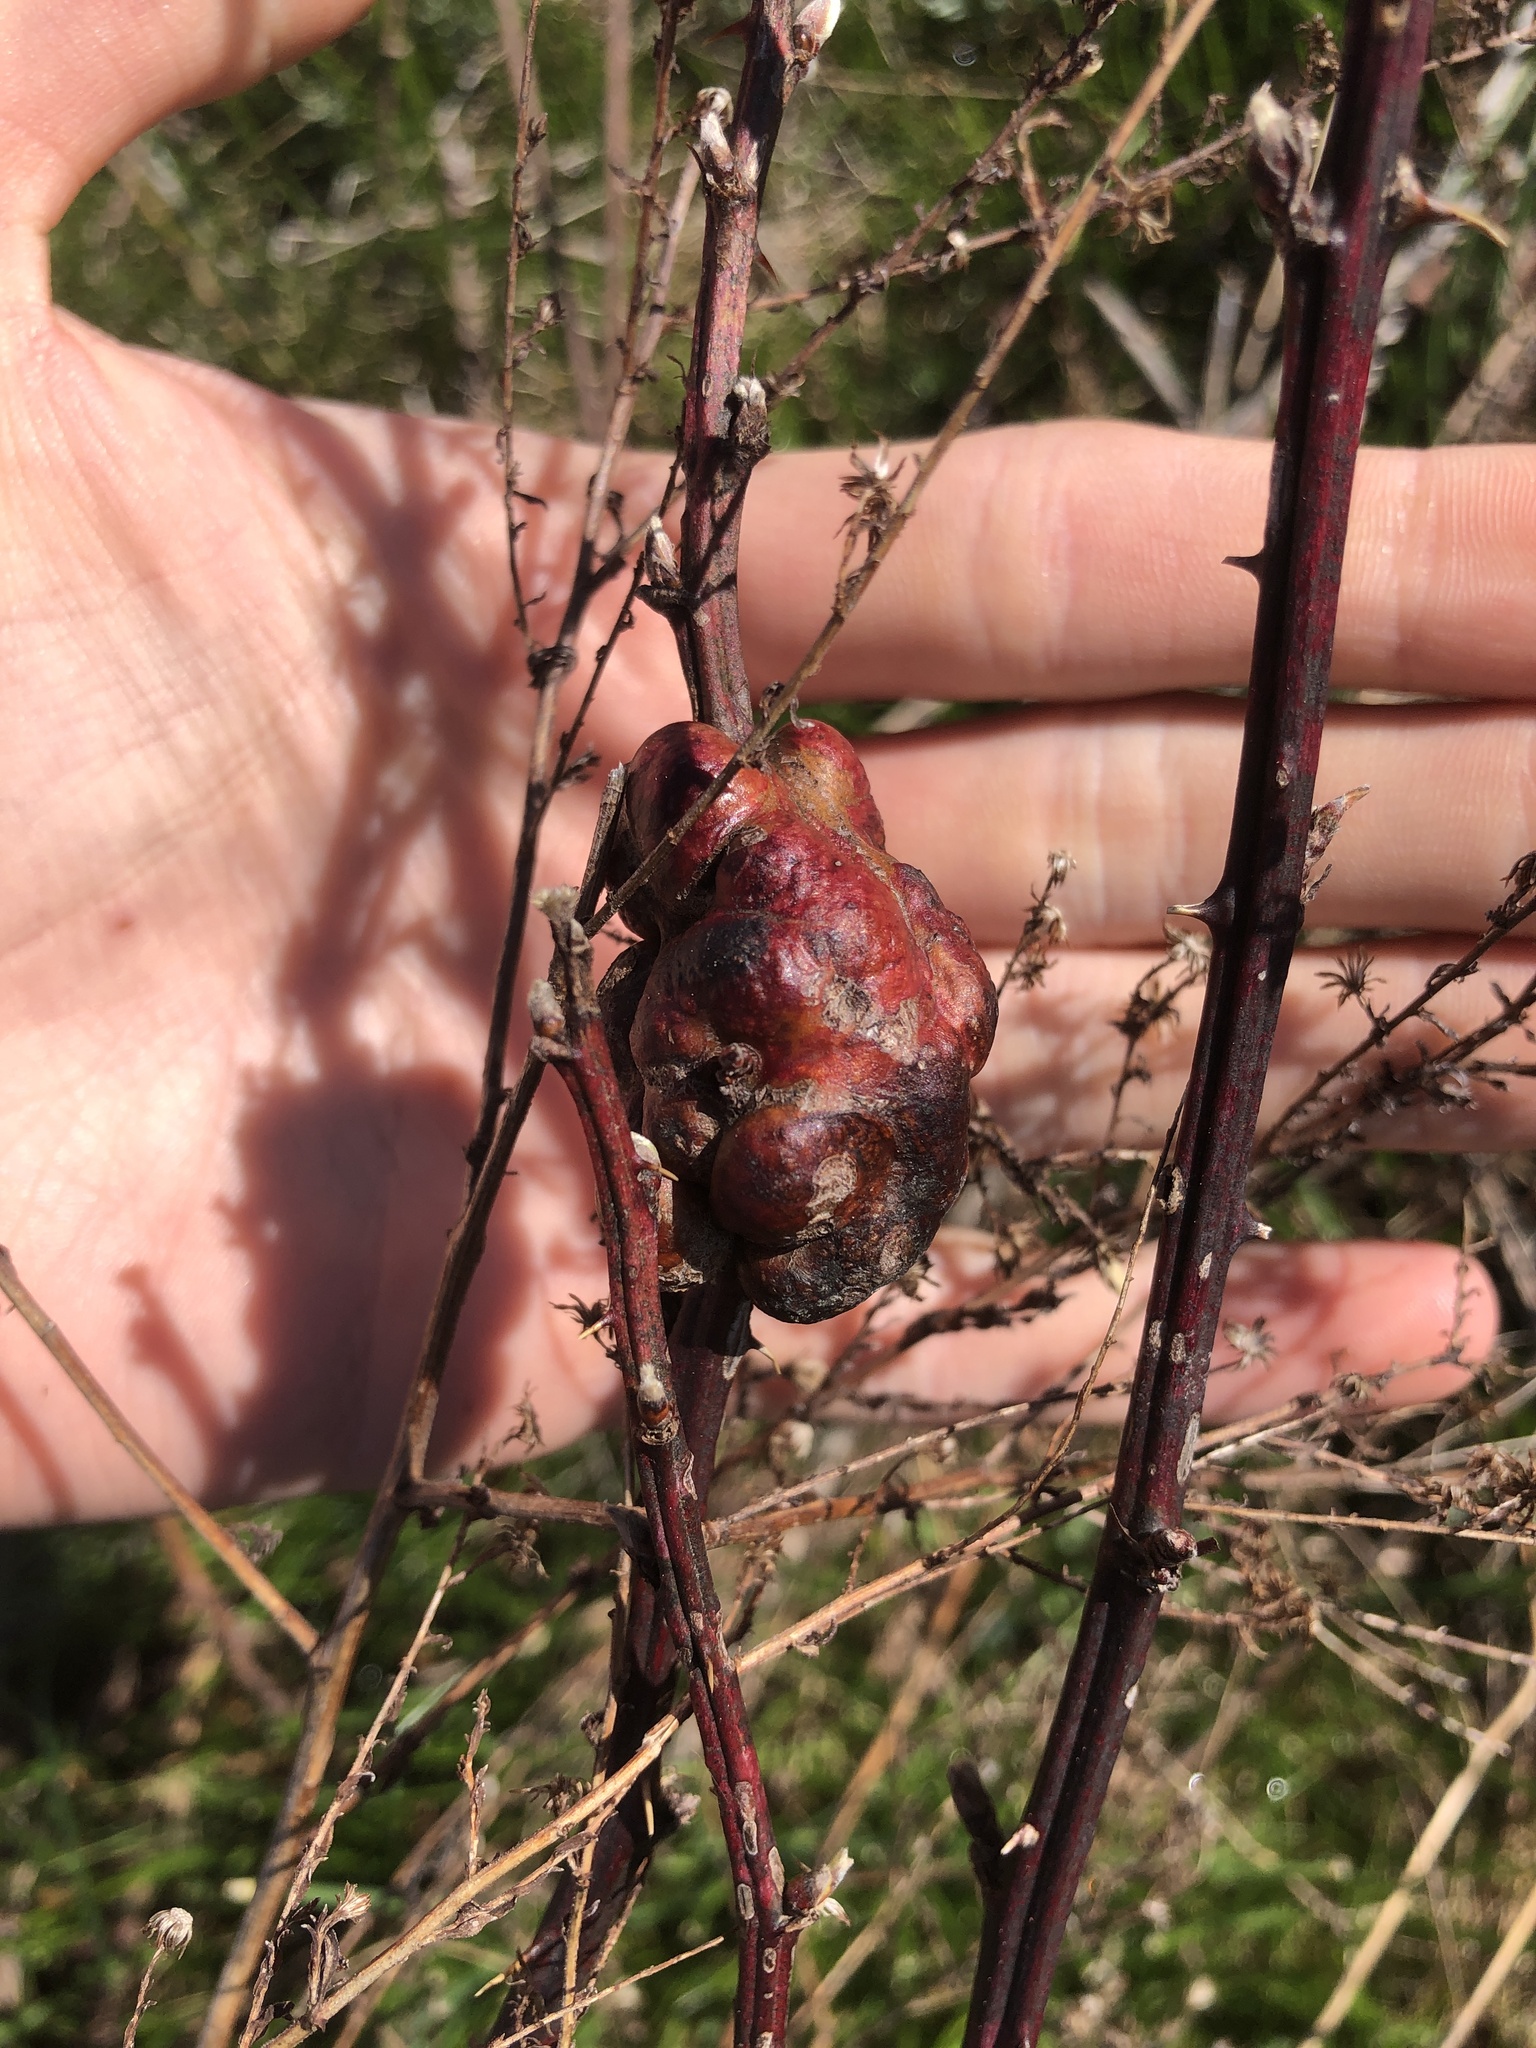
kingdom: Animalia
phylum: Arthropoda
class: Insecta
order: Hymenoptera
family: Cynipidae
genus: Diastrophus
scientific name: Diastrophus
